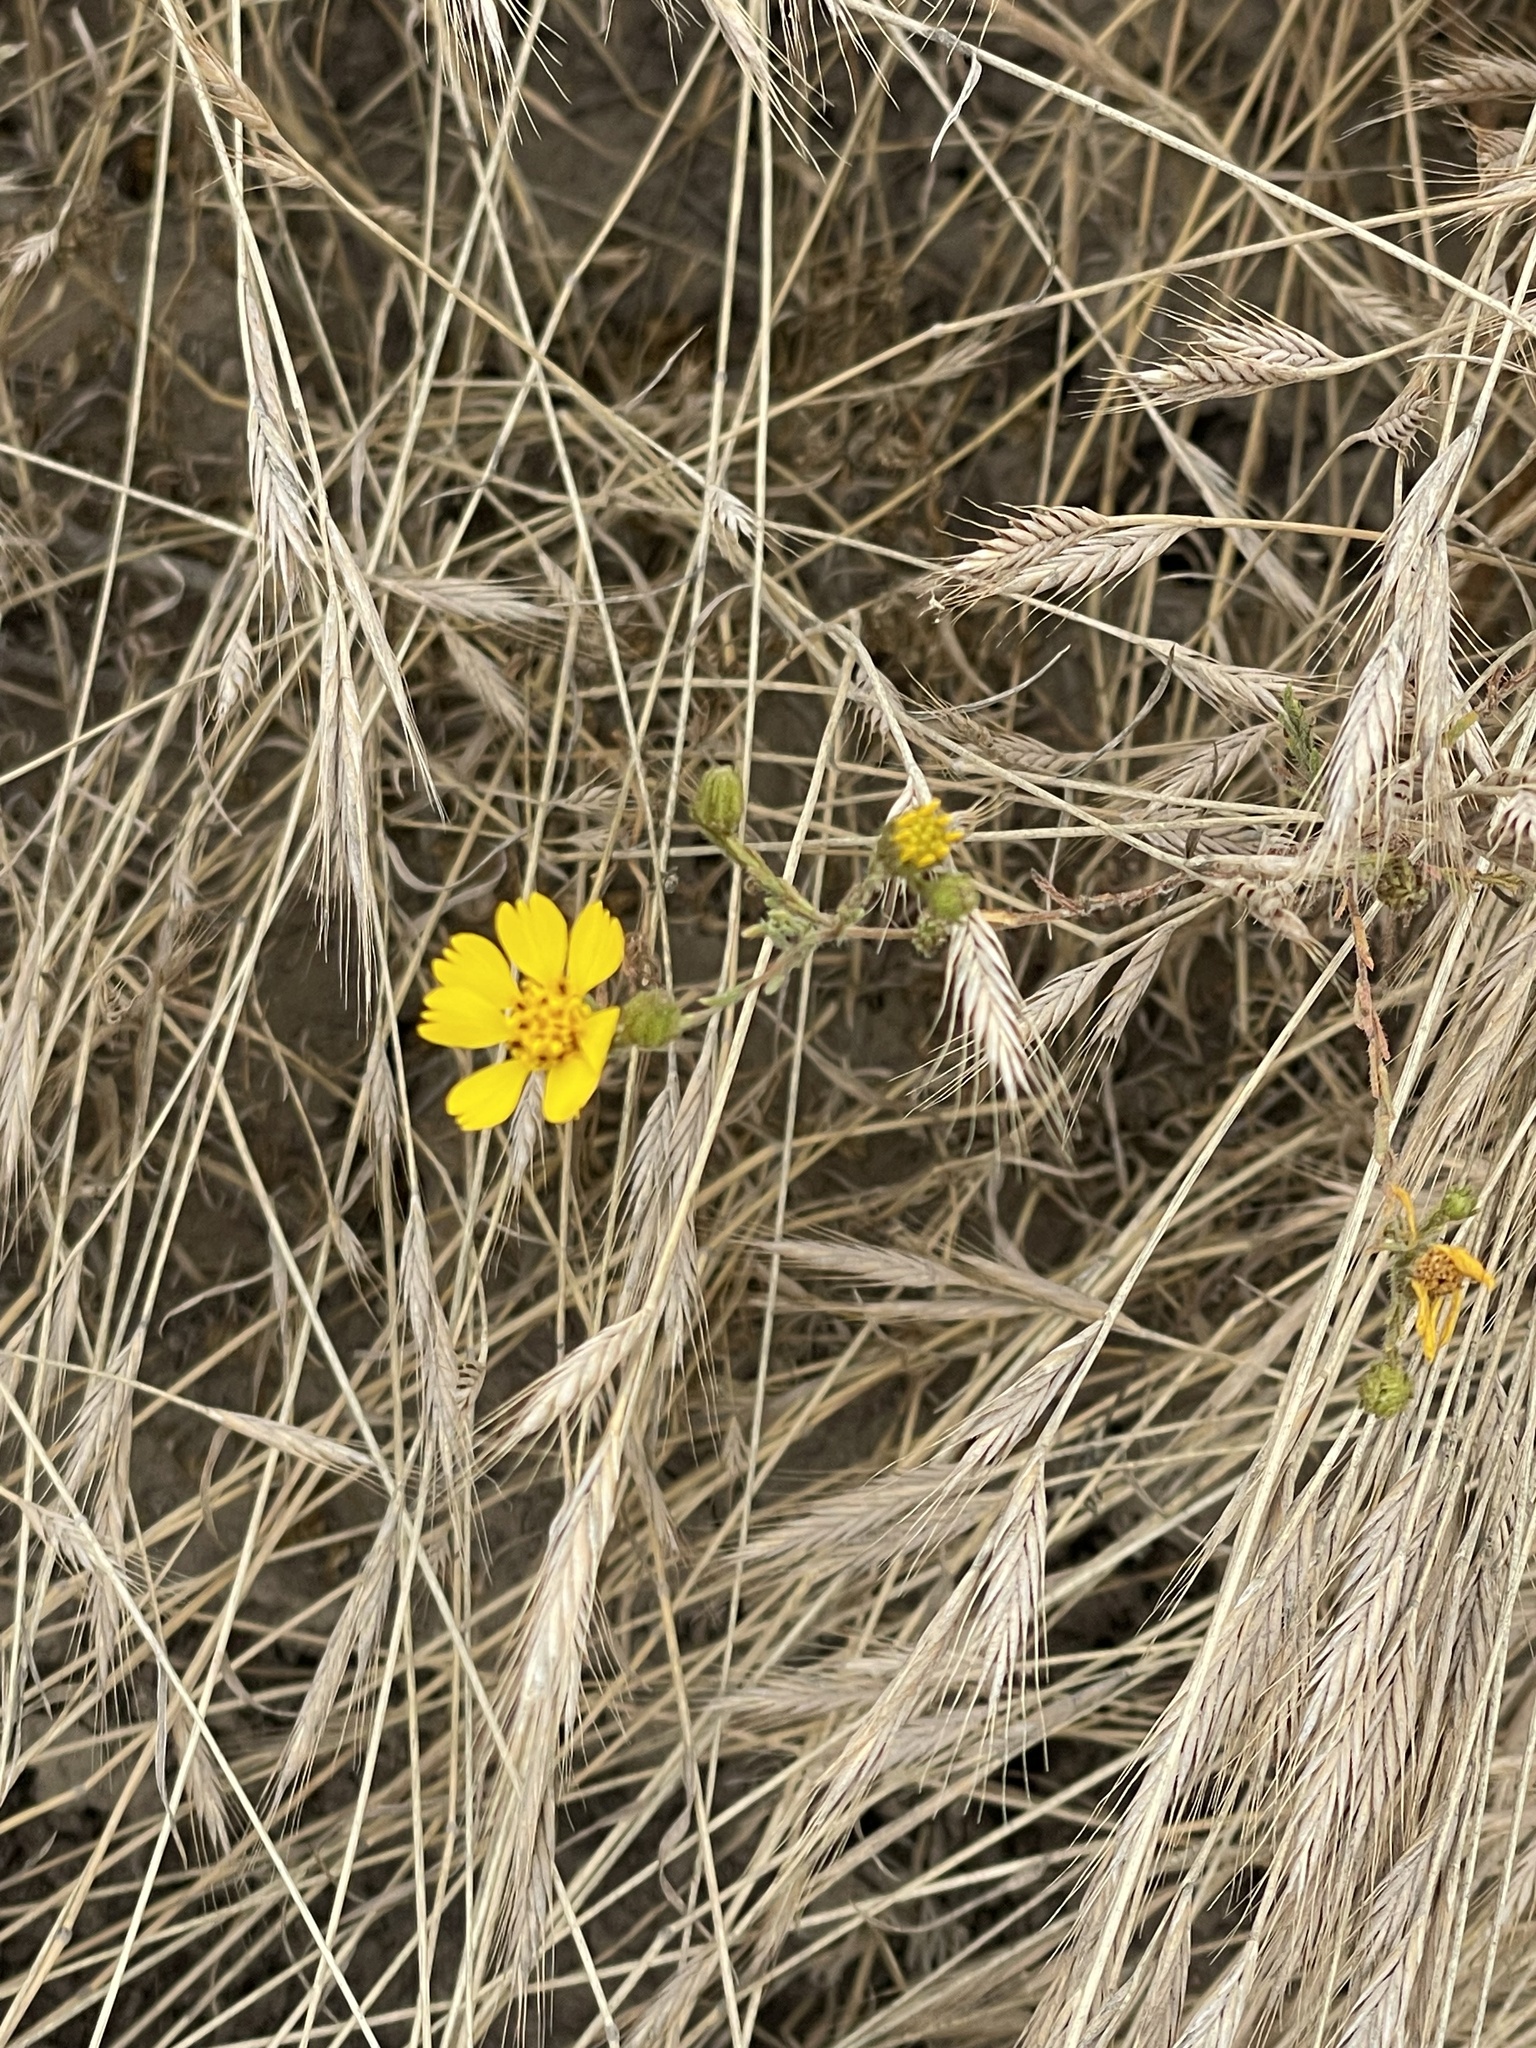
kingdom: Plantae
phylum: Tracheophyta
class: Magnoliopsida
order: Asterales
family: Asteraceae
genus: Deinandra
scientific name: Deinandra conjugens
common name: Otay tarplant
